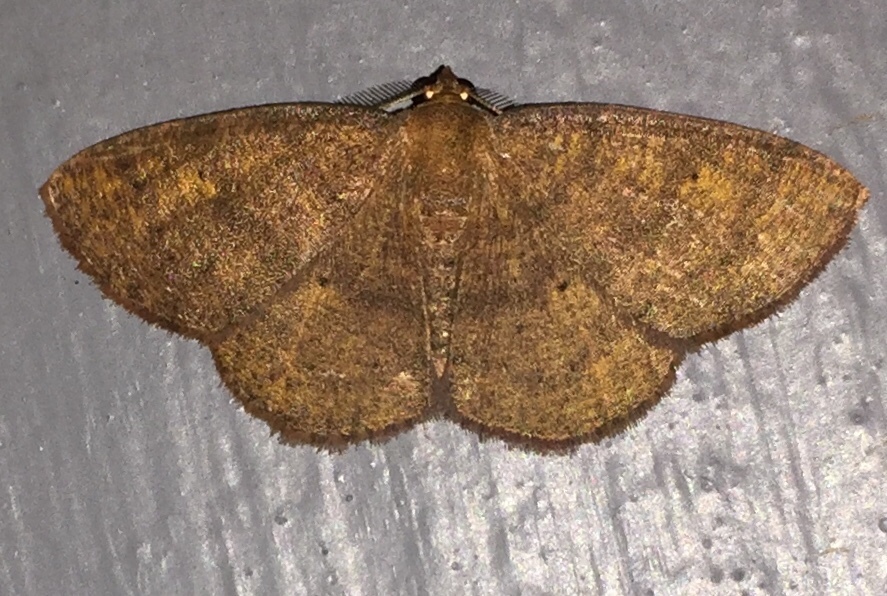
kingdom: Animalia
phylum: Arthropoda
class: Insecta
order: Lepidoptera
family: Geometridae
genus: Ilexia
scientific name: Ilexia intractata
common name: Black-dotted ruddy moth
